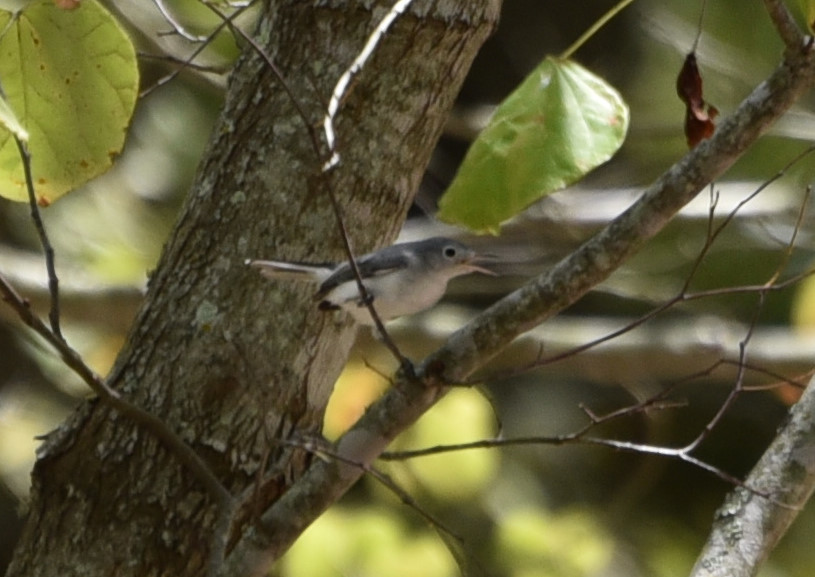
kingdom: Animalia
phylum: Chordata
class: Aves
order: Passeriformes
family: Polioptilidae
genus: Polioptila
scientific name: Polioptila caerulea
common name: Blue-gray gnatcatcher
